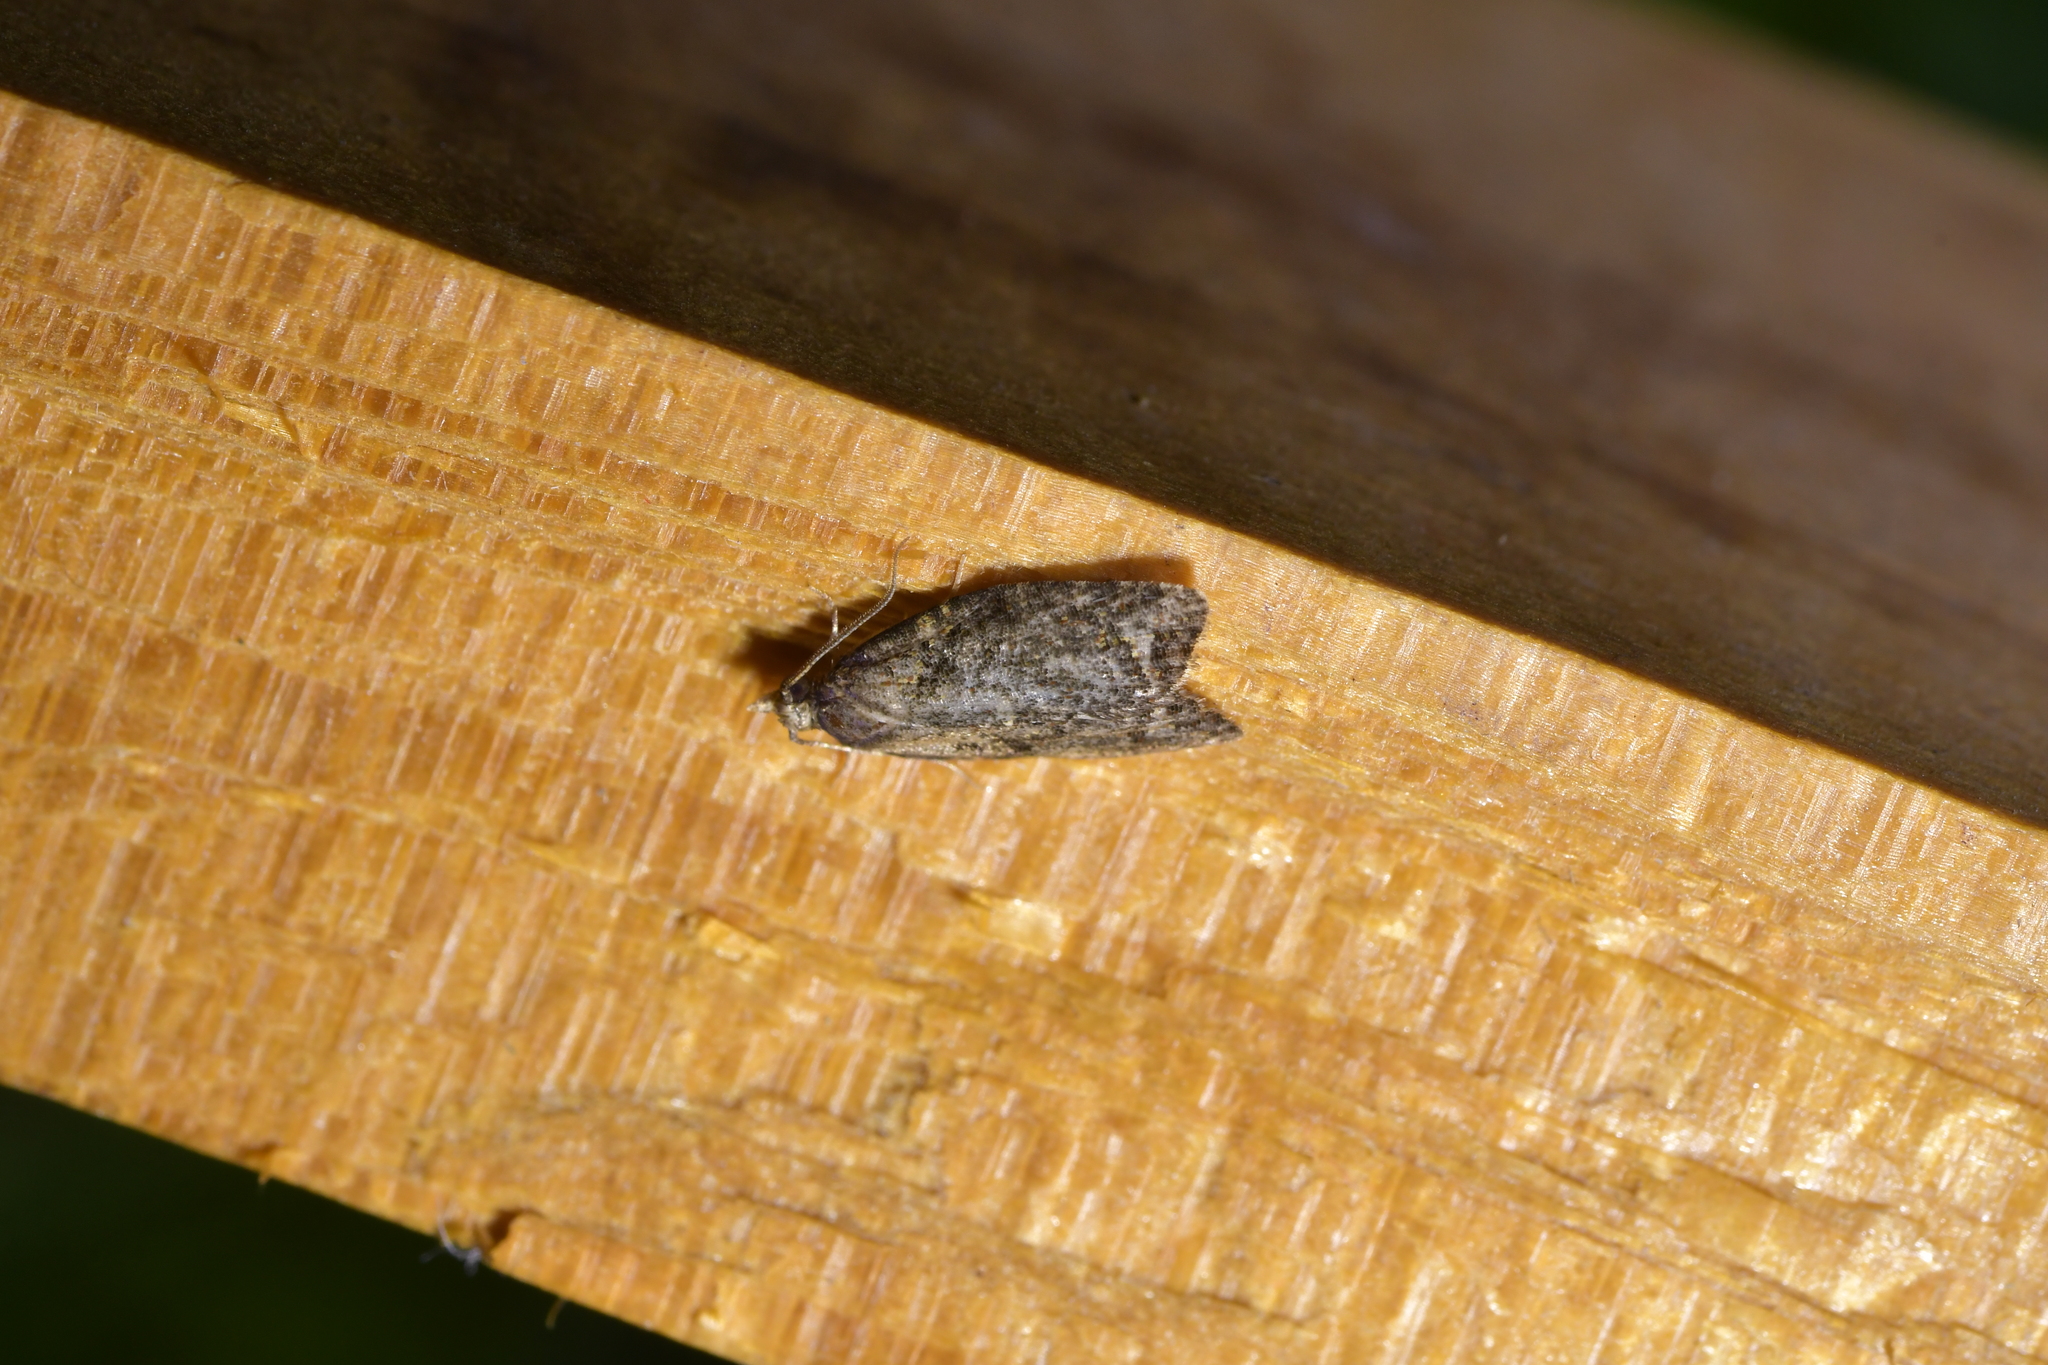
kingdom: Animalia
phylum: Arthropoda
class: Insecta
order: Lepidoptera
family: Tortricidae
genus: Capua
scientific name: Capua intractana
